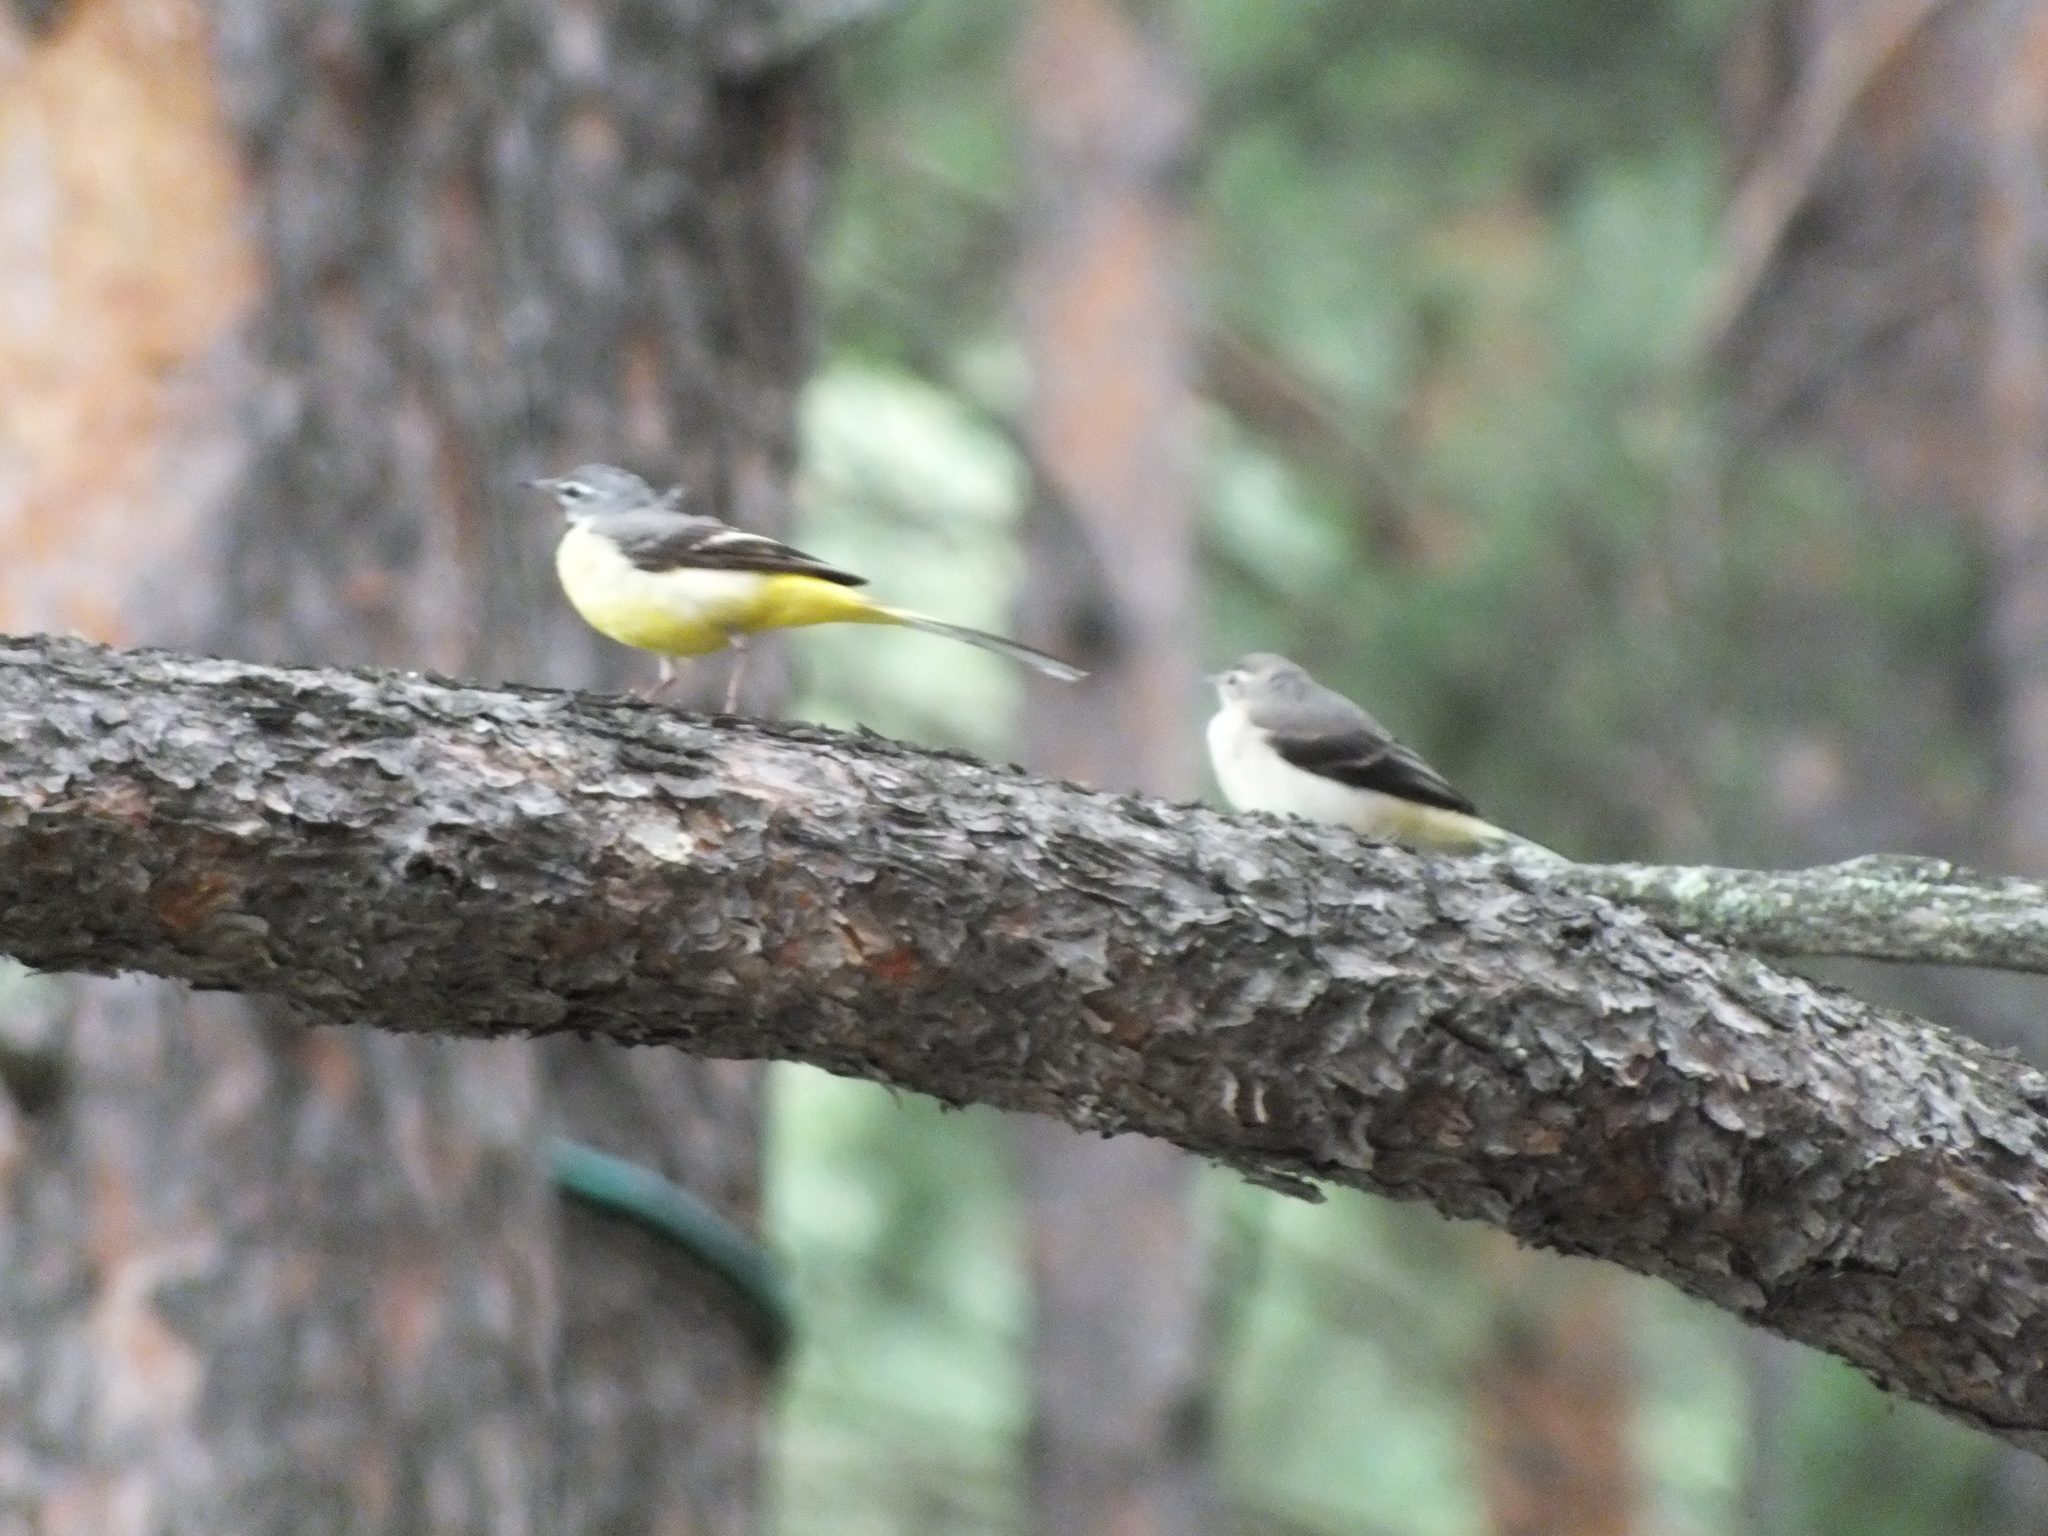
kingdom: Animalia
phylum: Chordata
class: Aves
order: Passeriformes
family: Motacillidae
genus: Motacilla
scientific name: Motacilla cinerea
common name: Grey wagtail
